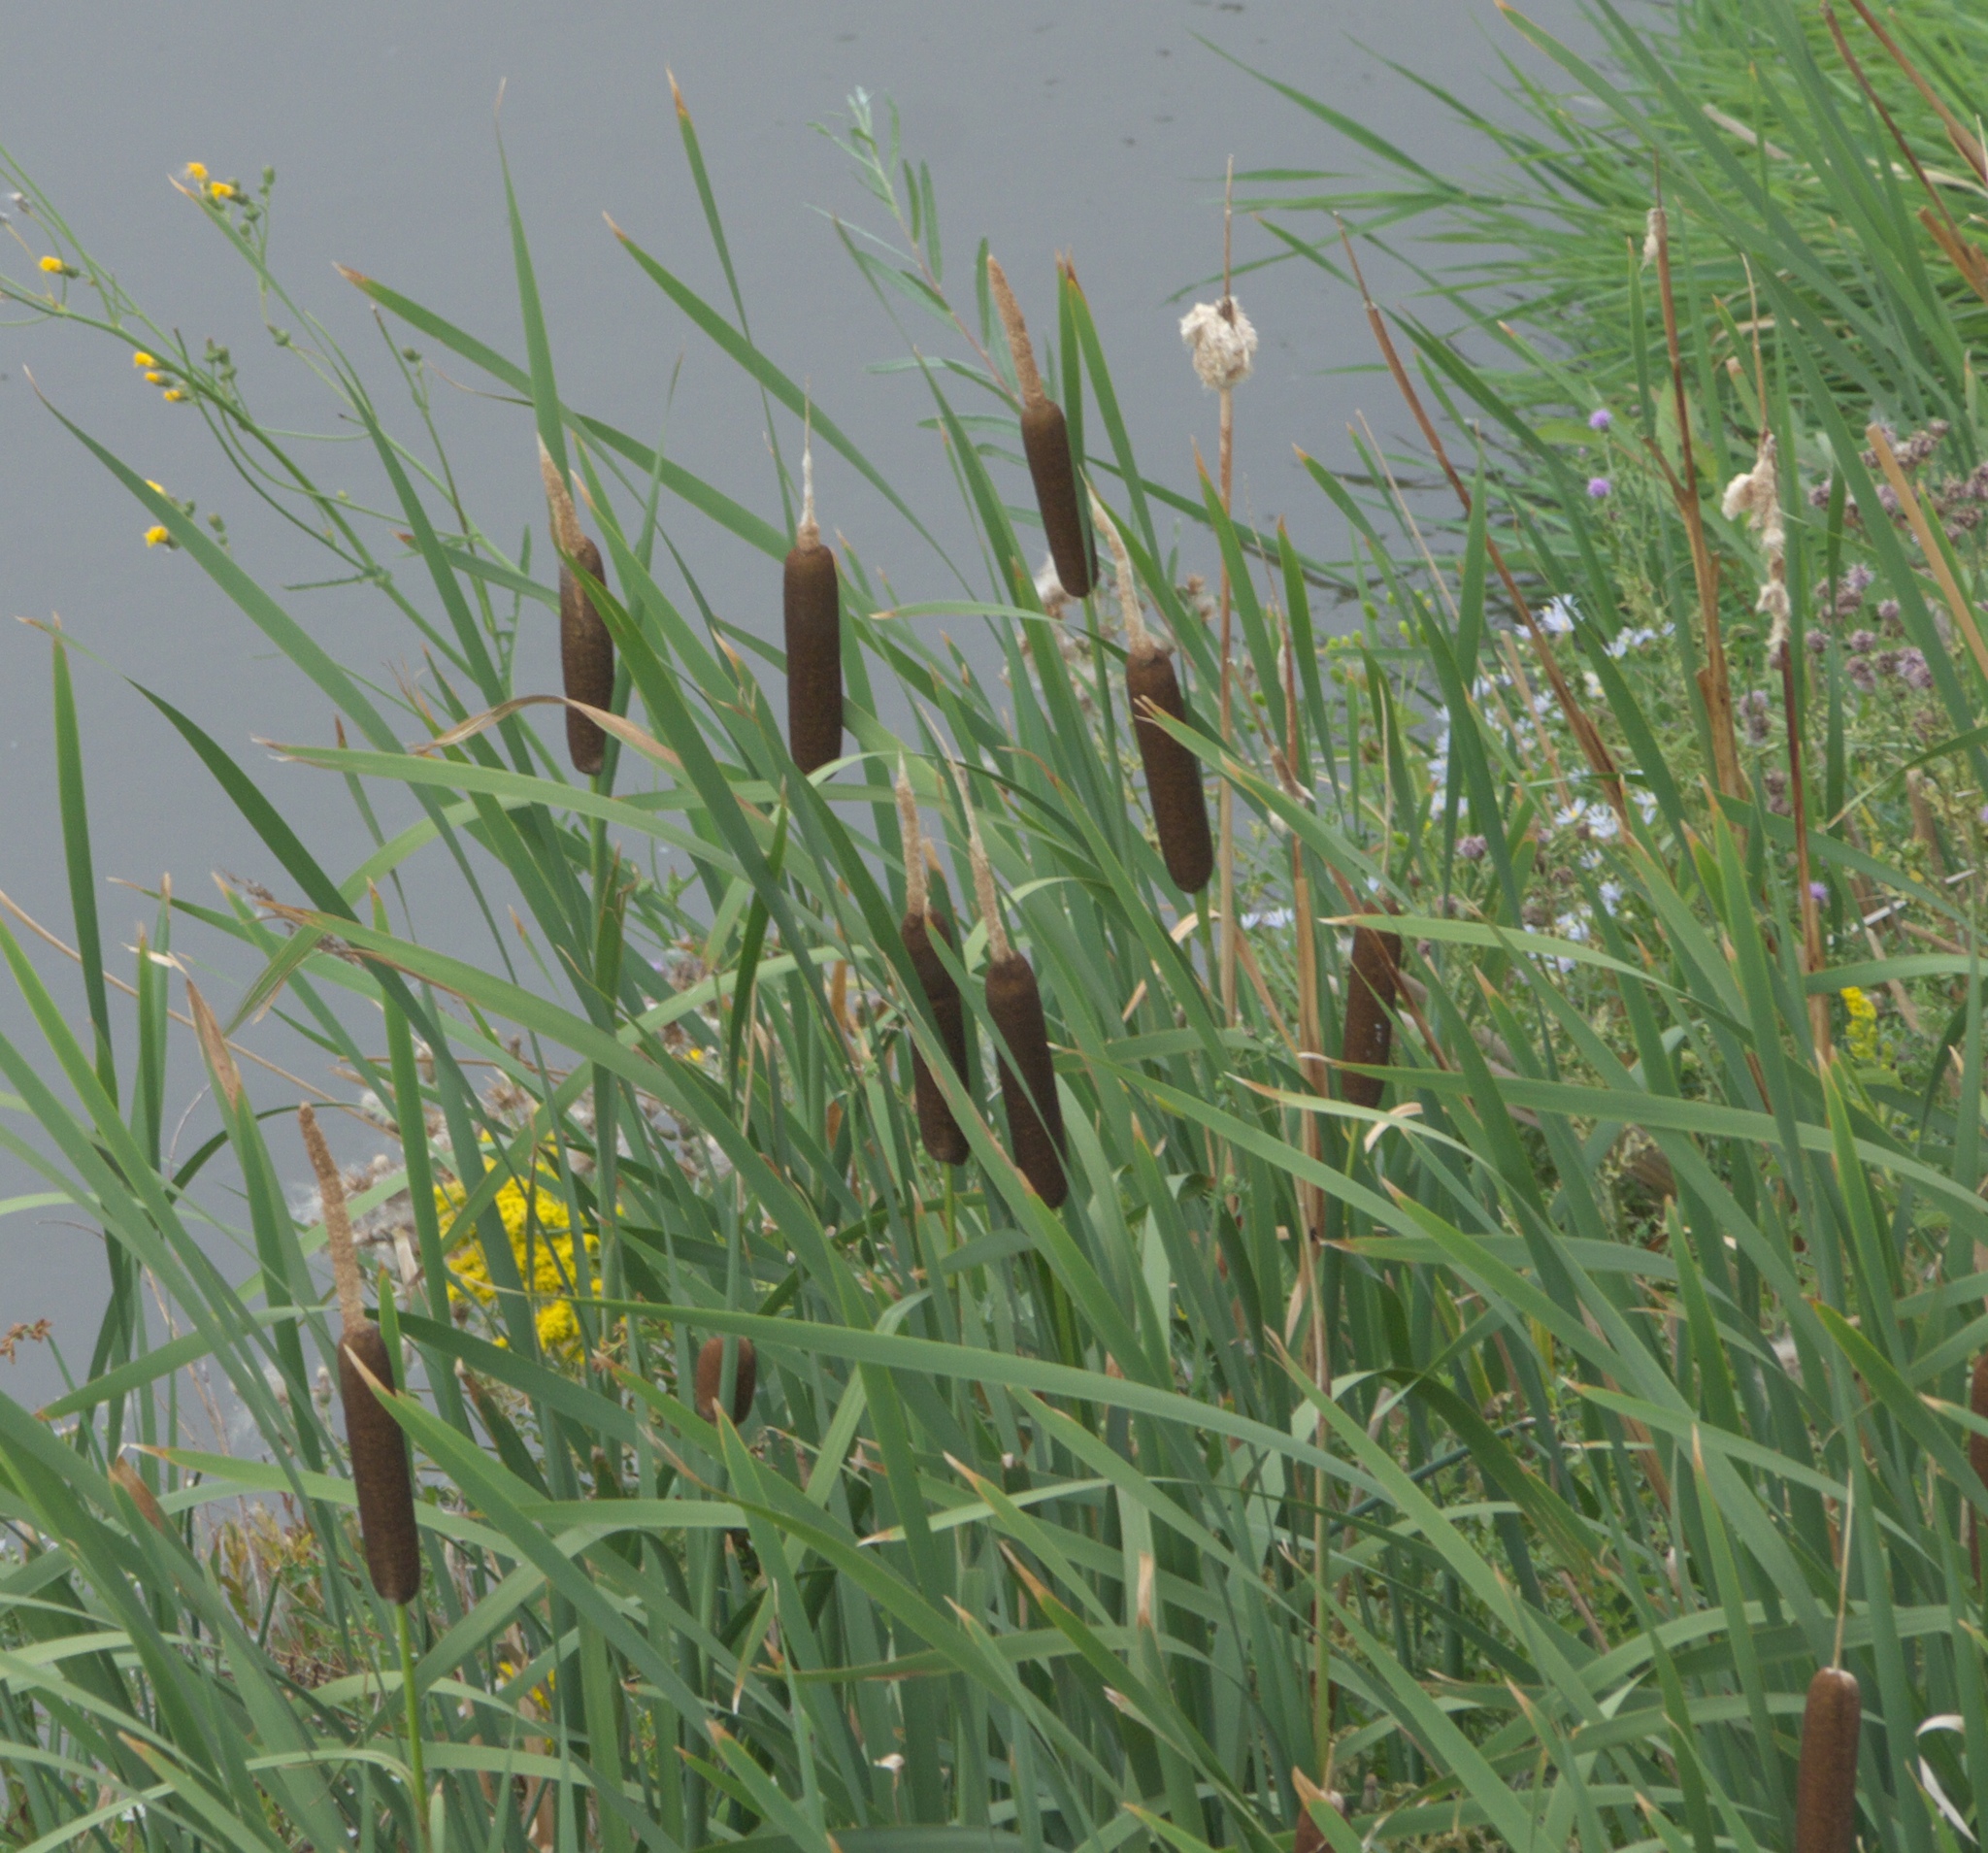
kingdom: Plantae
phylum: Tracheophyta
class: Liliopsida
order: Poales
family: Typhaceae
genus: Typha
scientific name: Typha latifolia
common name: Broadleaf cattail
